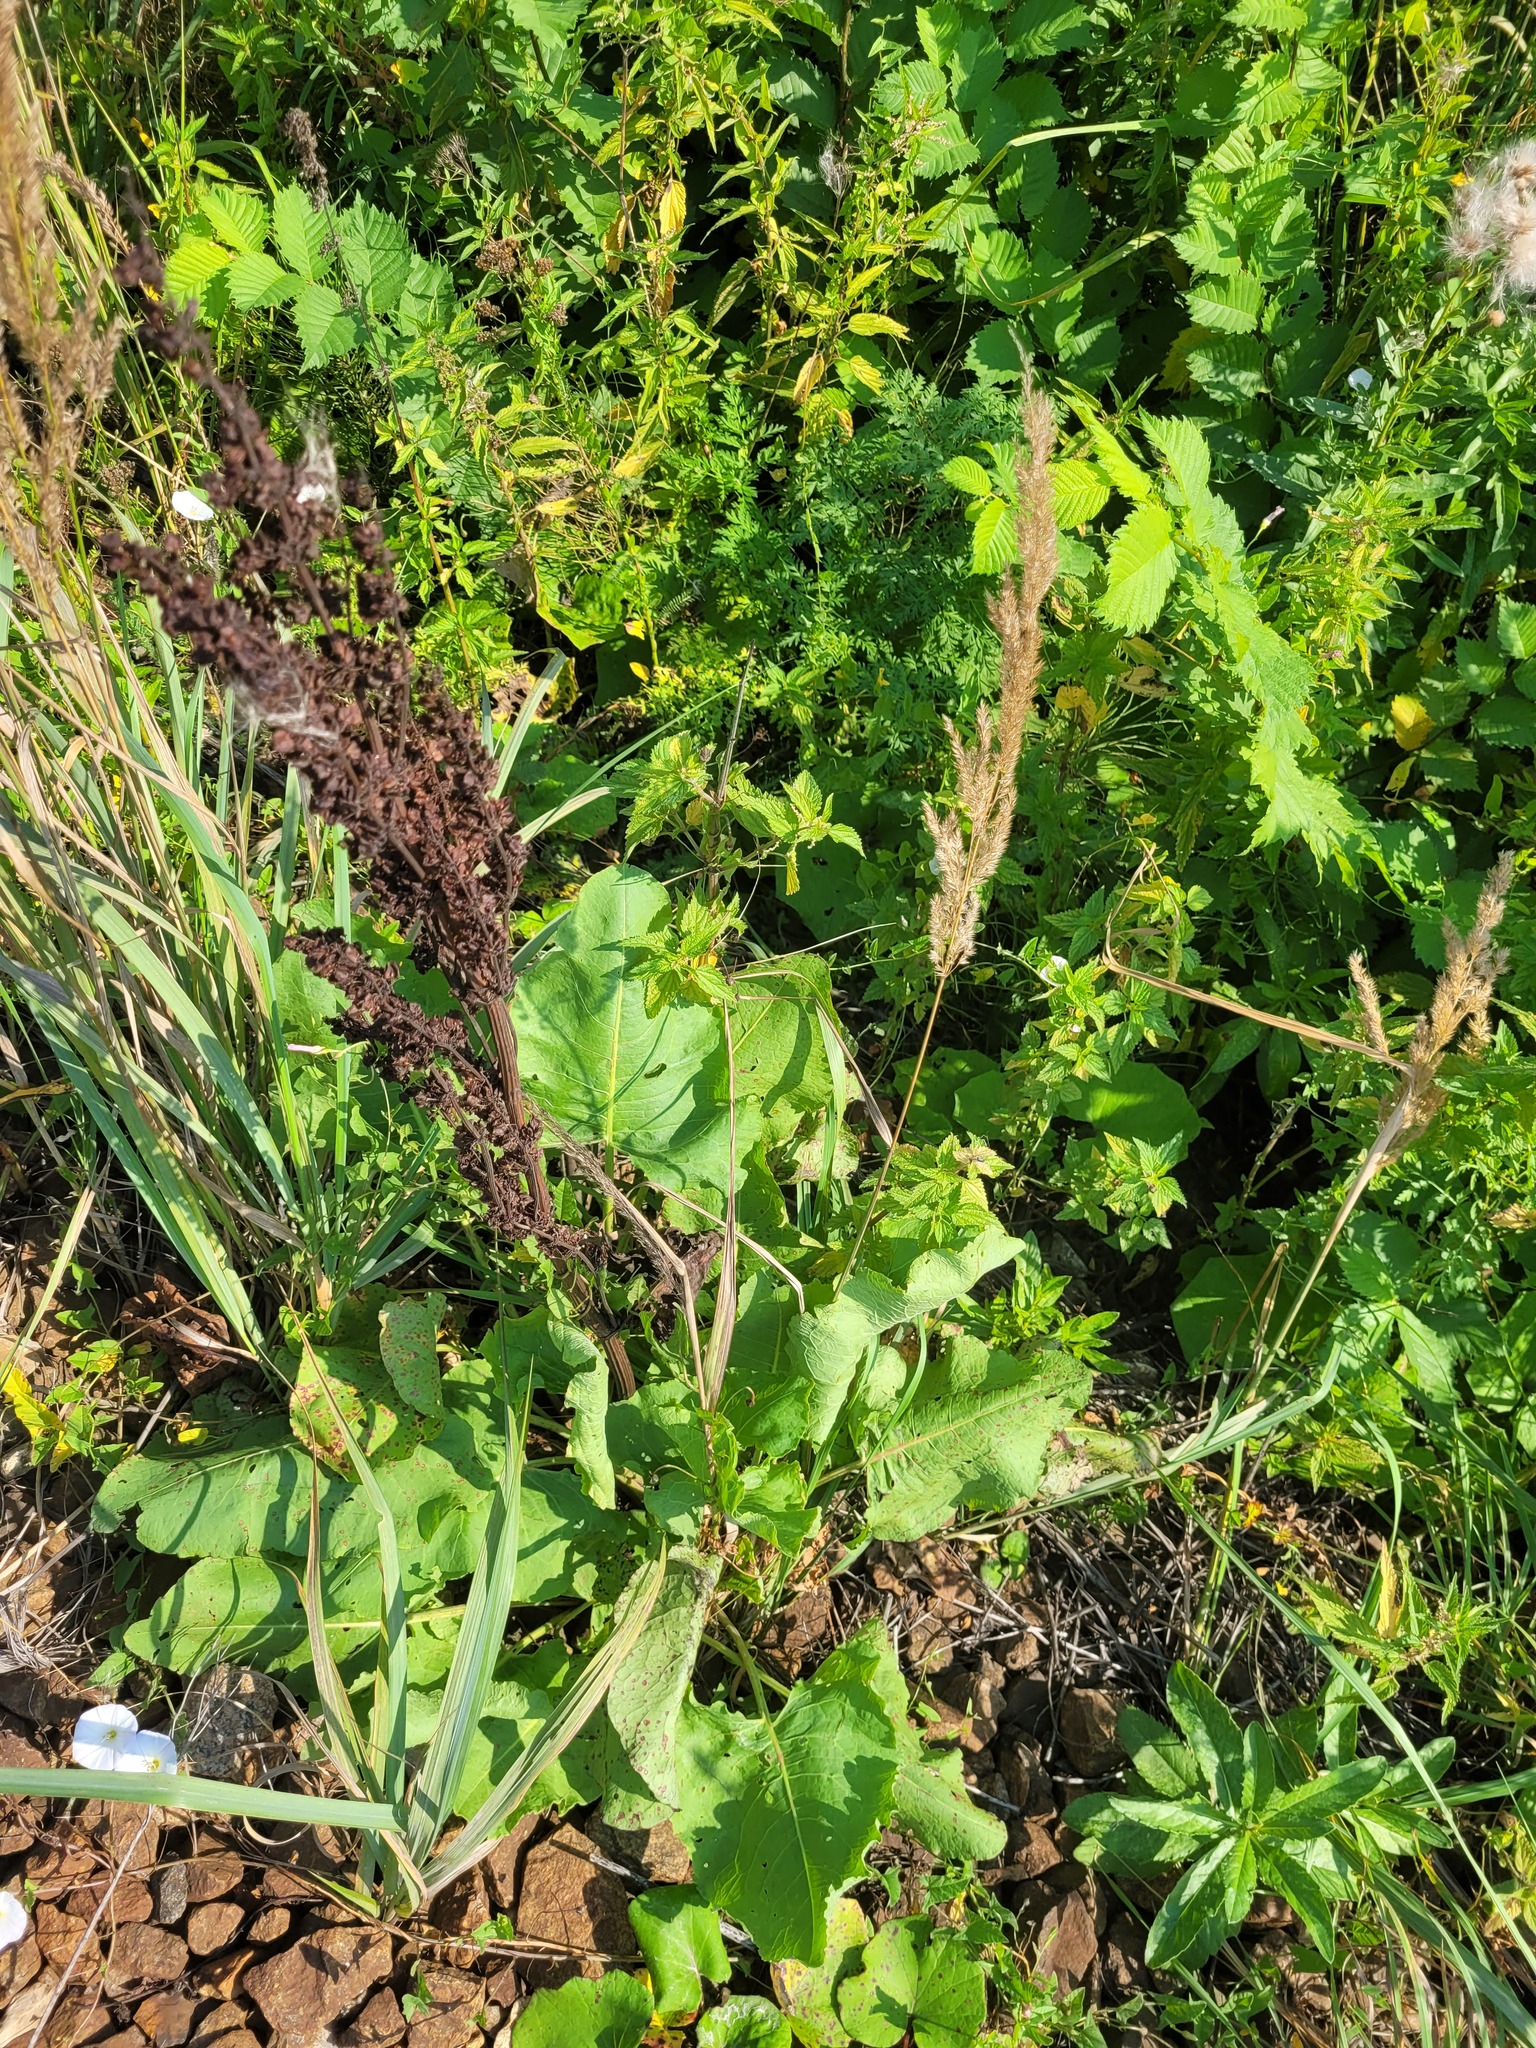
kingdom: Plantae
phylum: Tracheophyta
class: Magnoliopsida
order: Caryophyllales
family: Polygonaceae
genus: Rumex
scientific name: Rumex confertus
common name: Russian dock
